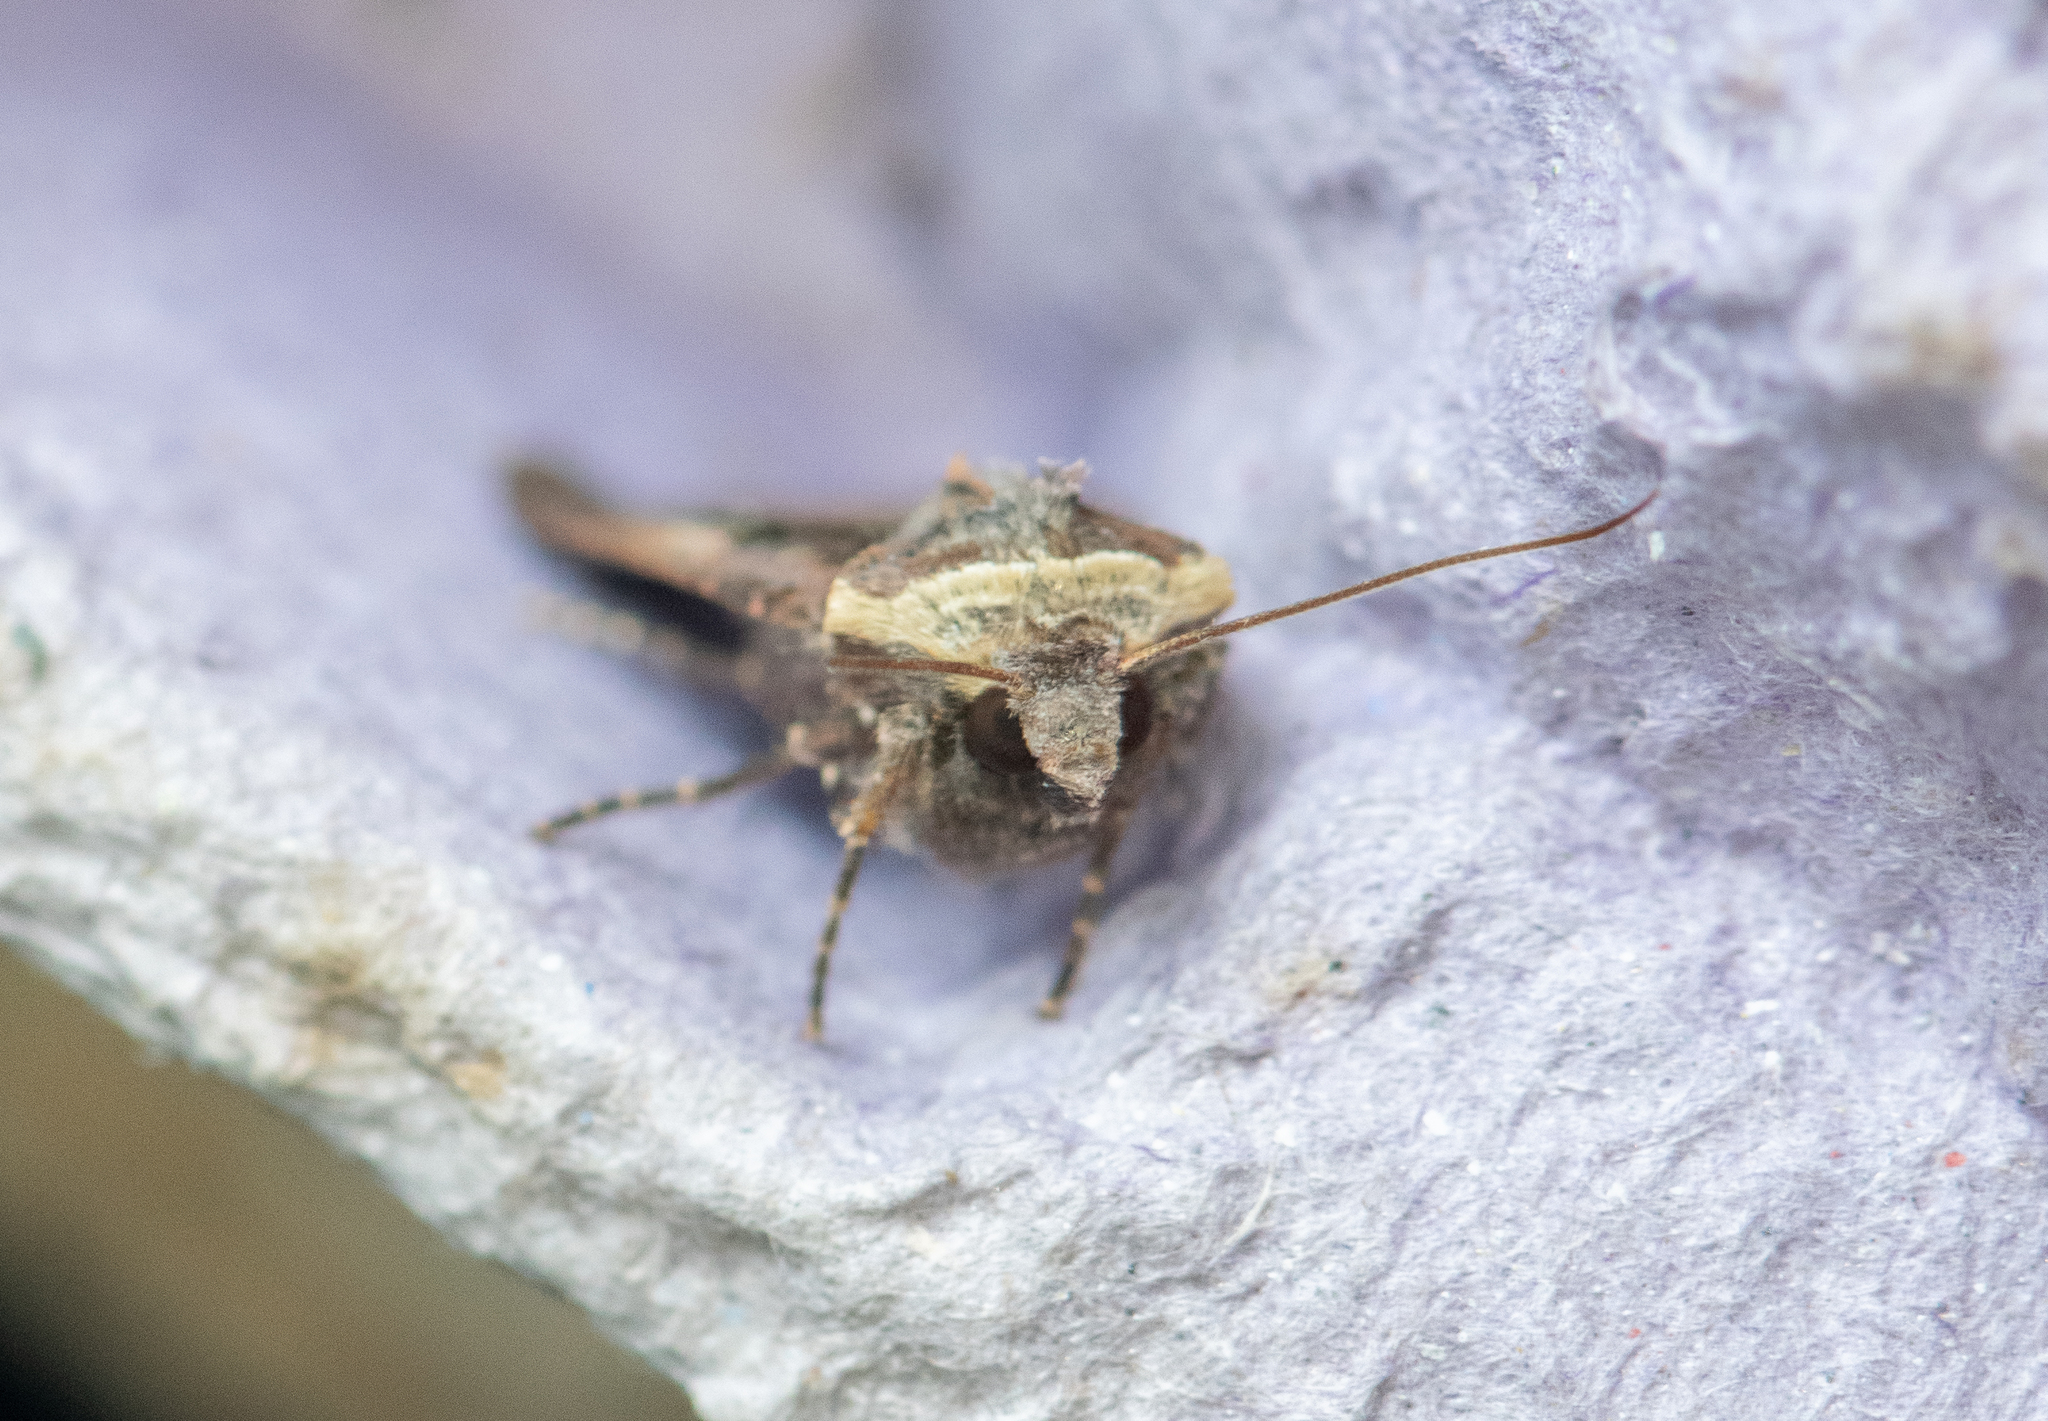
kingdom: Animalia
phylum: Arthropoda
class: Insecta
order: Lepidoptera
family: Noctuidae
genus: Xestia
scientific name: Xestia c-nigrum
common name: Setaceous hebrew character
